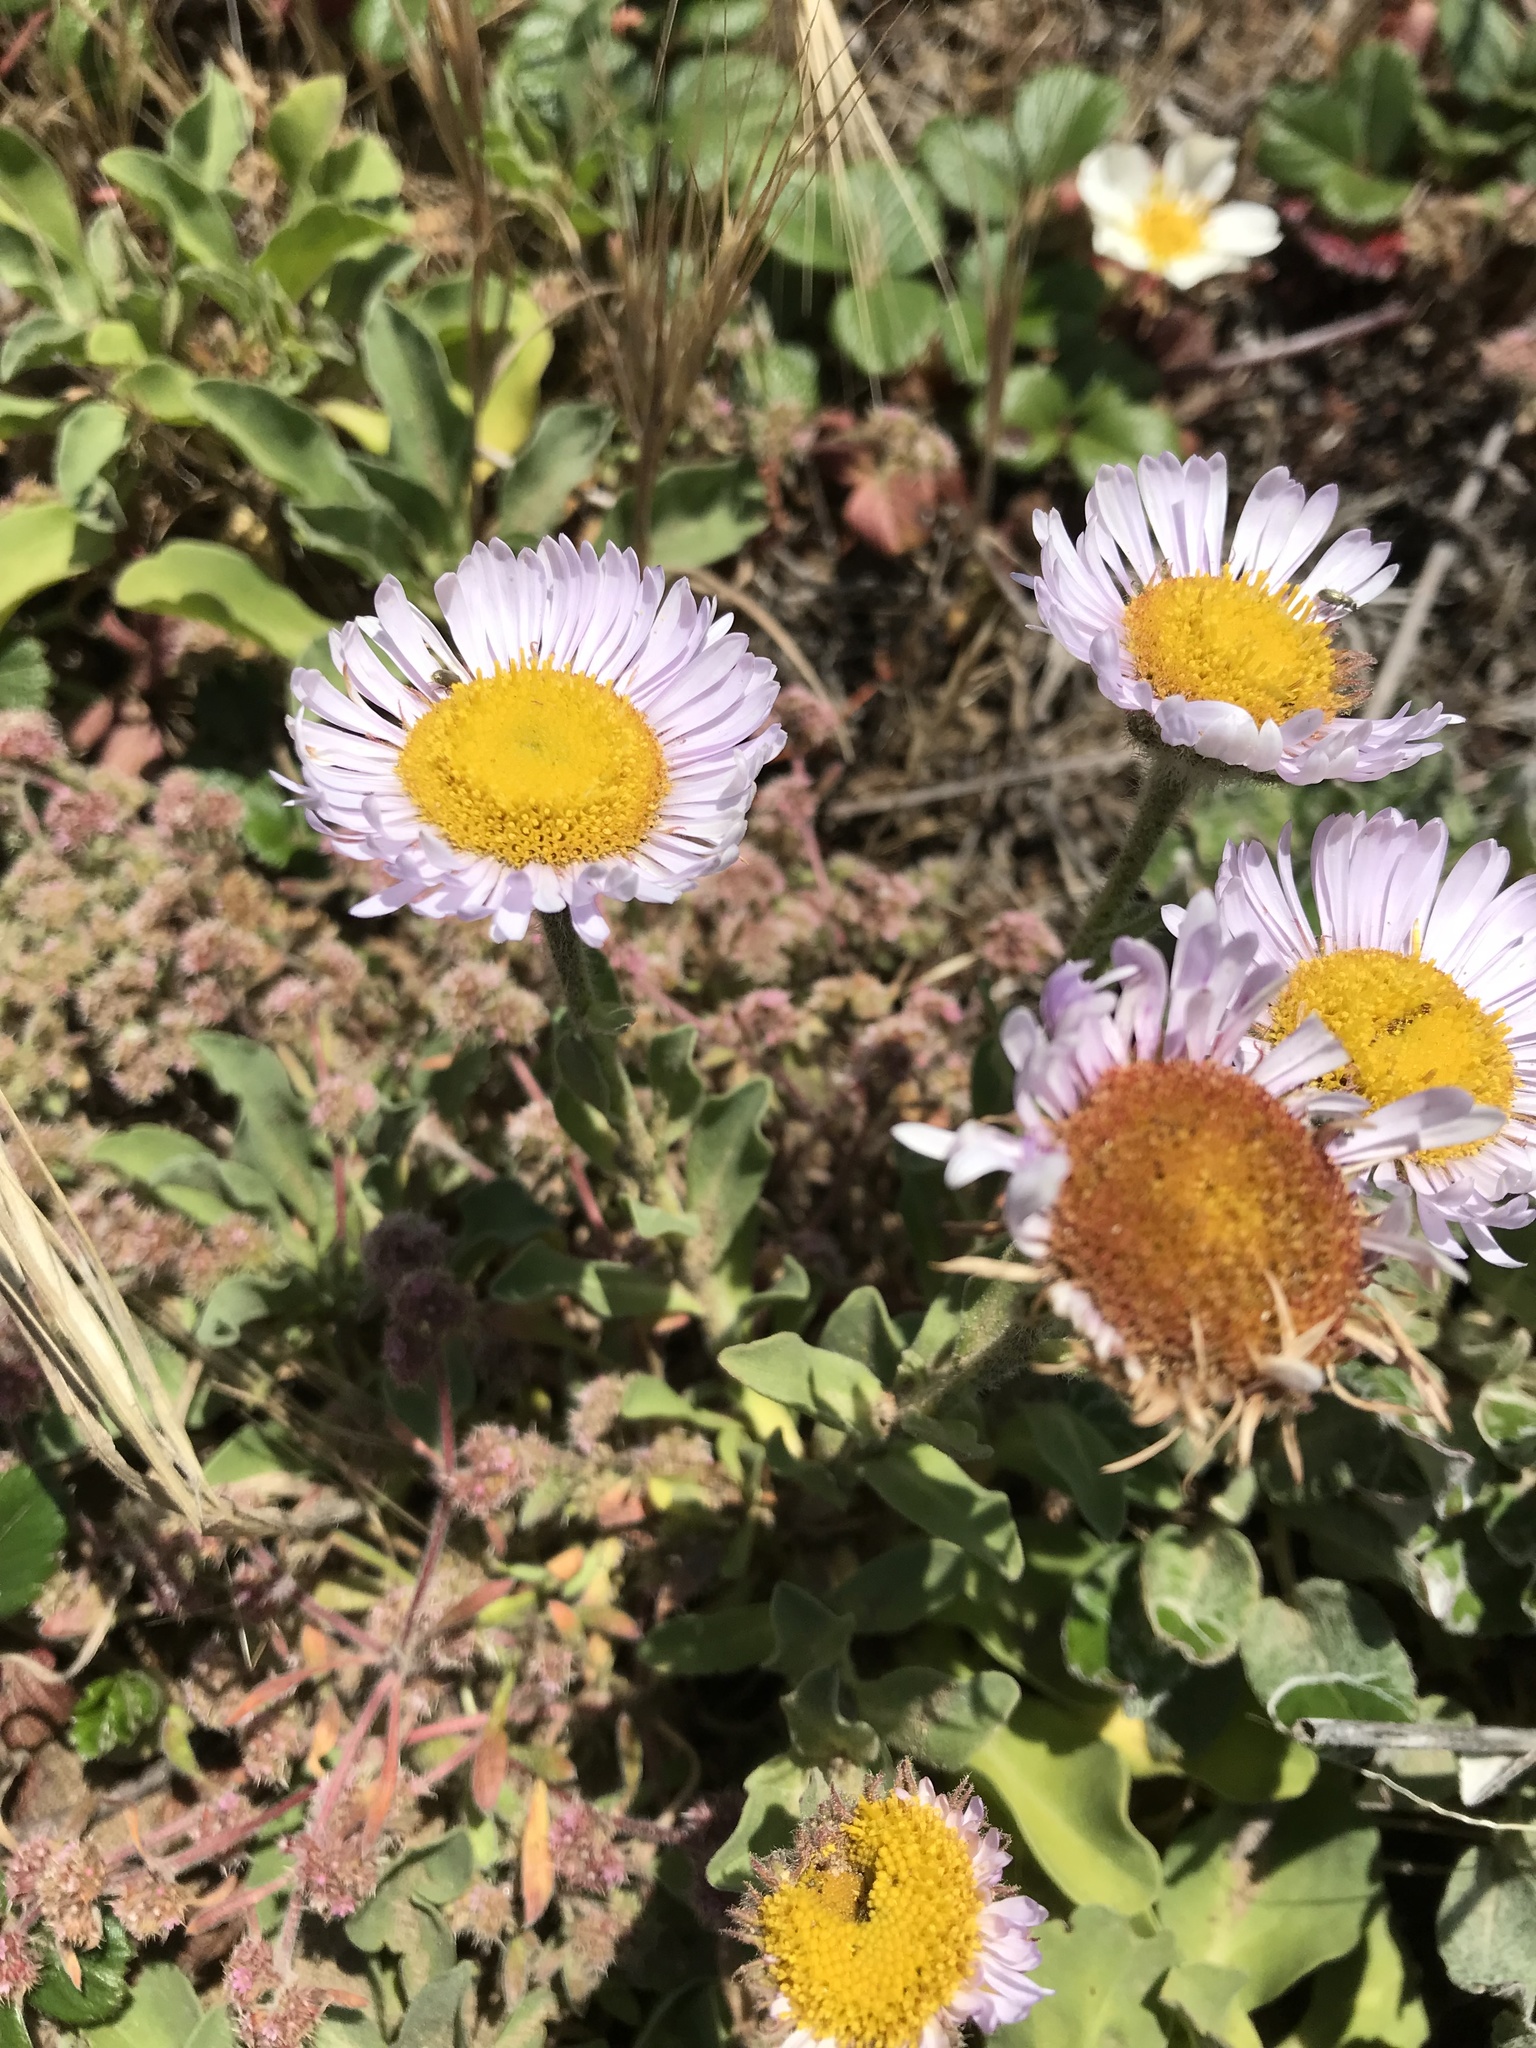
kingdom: Plantae
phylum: Tracheophyta
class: Magnoliopsida
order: Asterales
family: Asteraceae
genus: Erigeron
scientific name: Erigeron glaucus
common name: Seaside daisy
